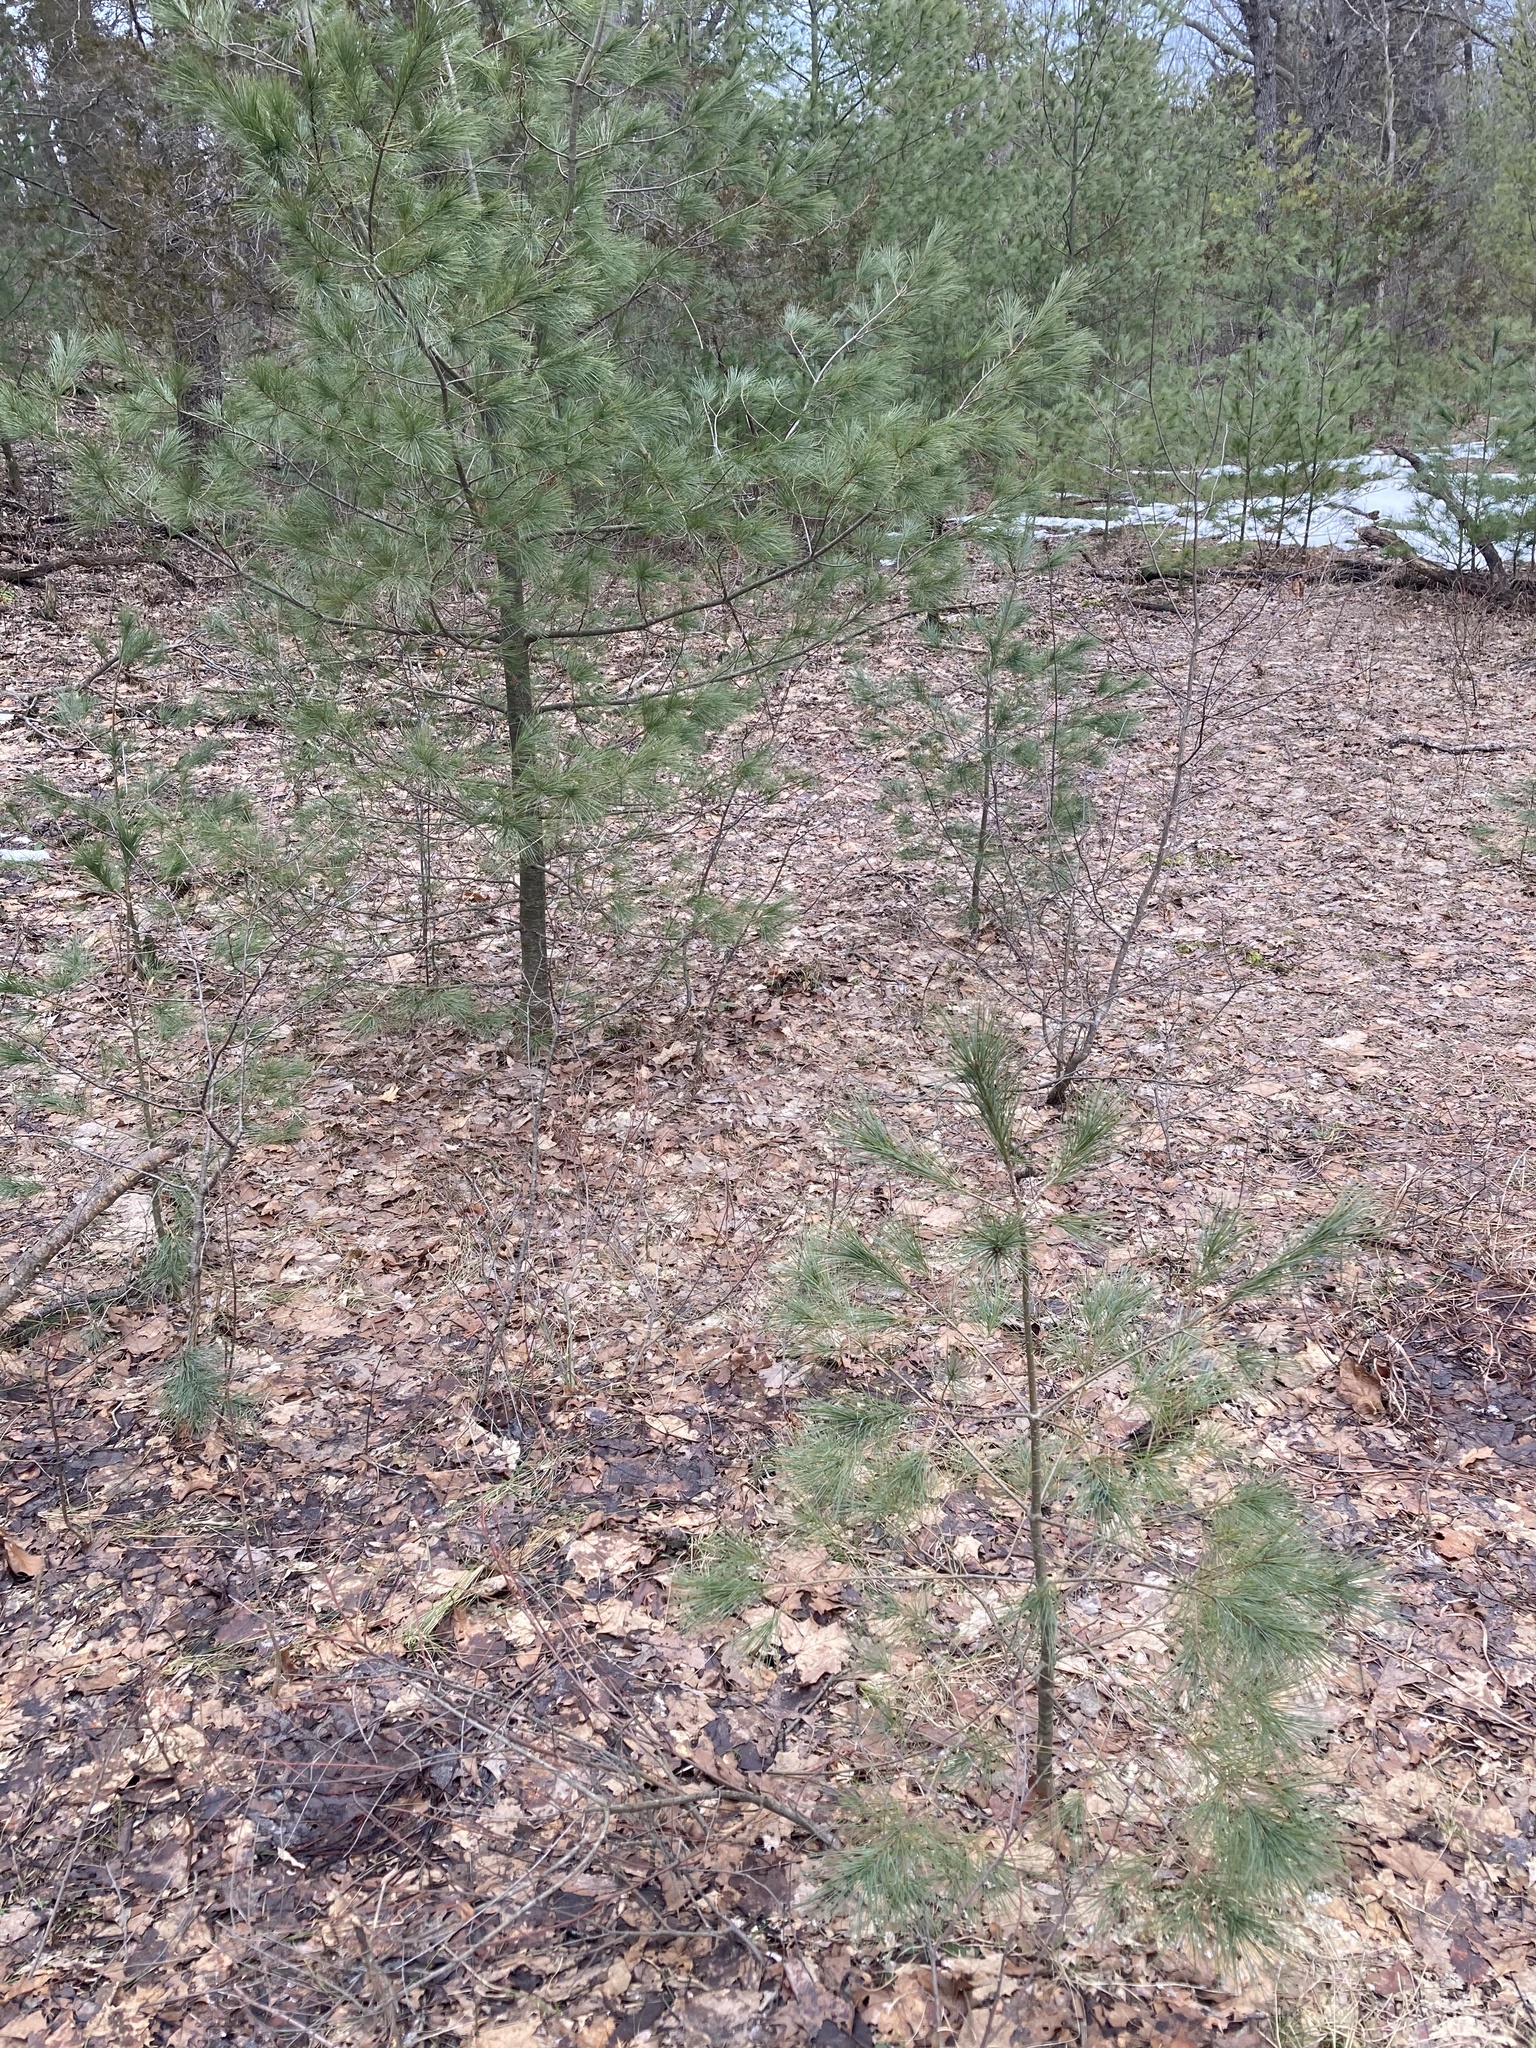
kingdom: Plantae
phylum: Tracheophyta
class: Pinopsida
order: Pinales
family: Pinaceae
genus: Pinus
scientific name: Pinus strobus
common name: Weymouth pine
